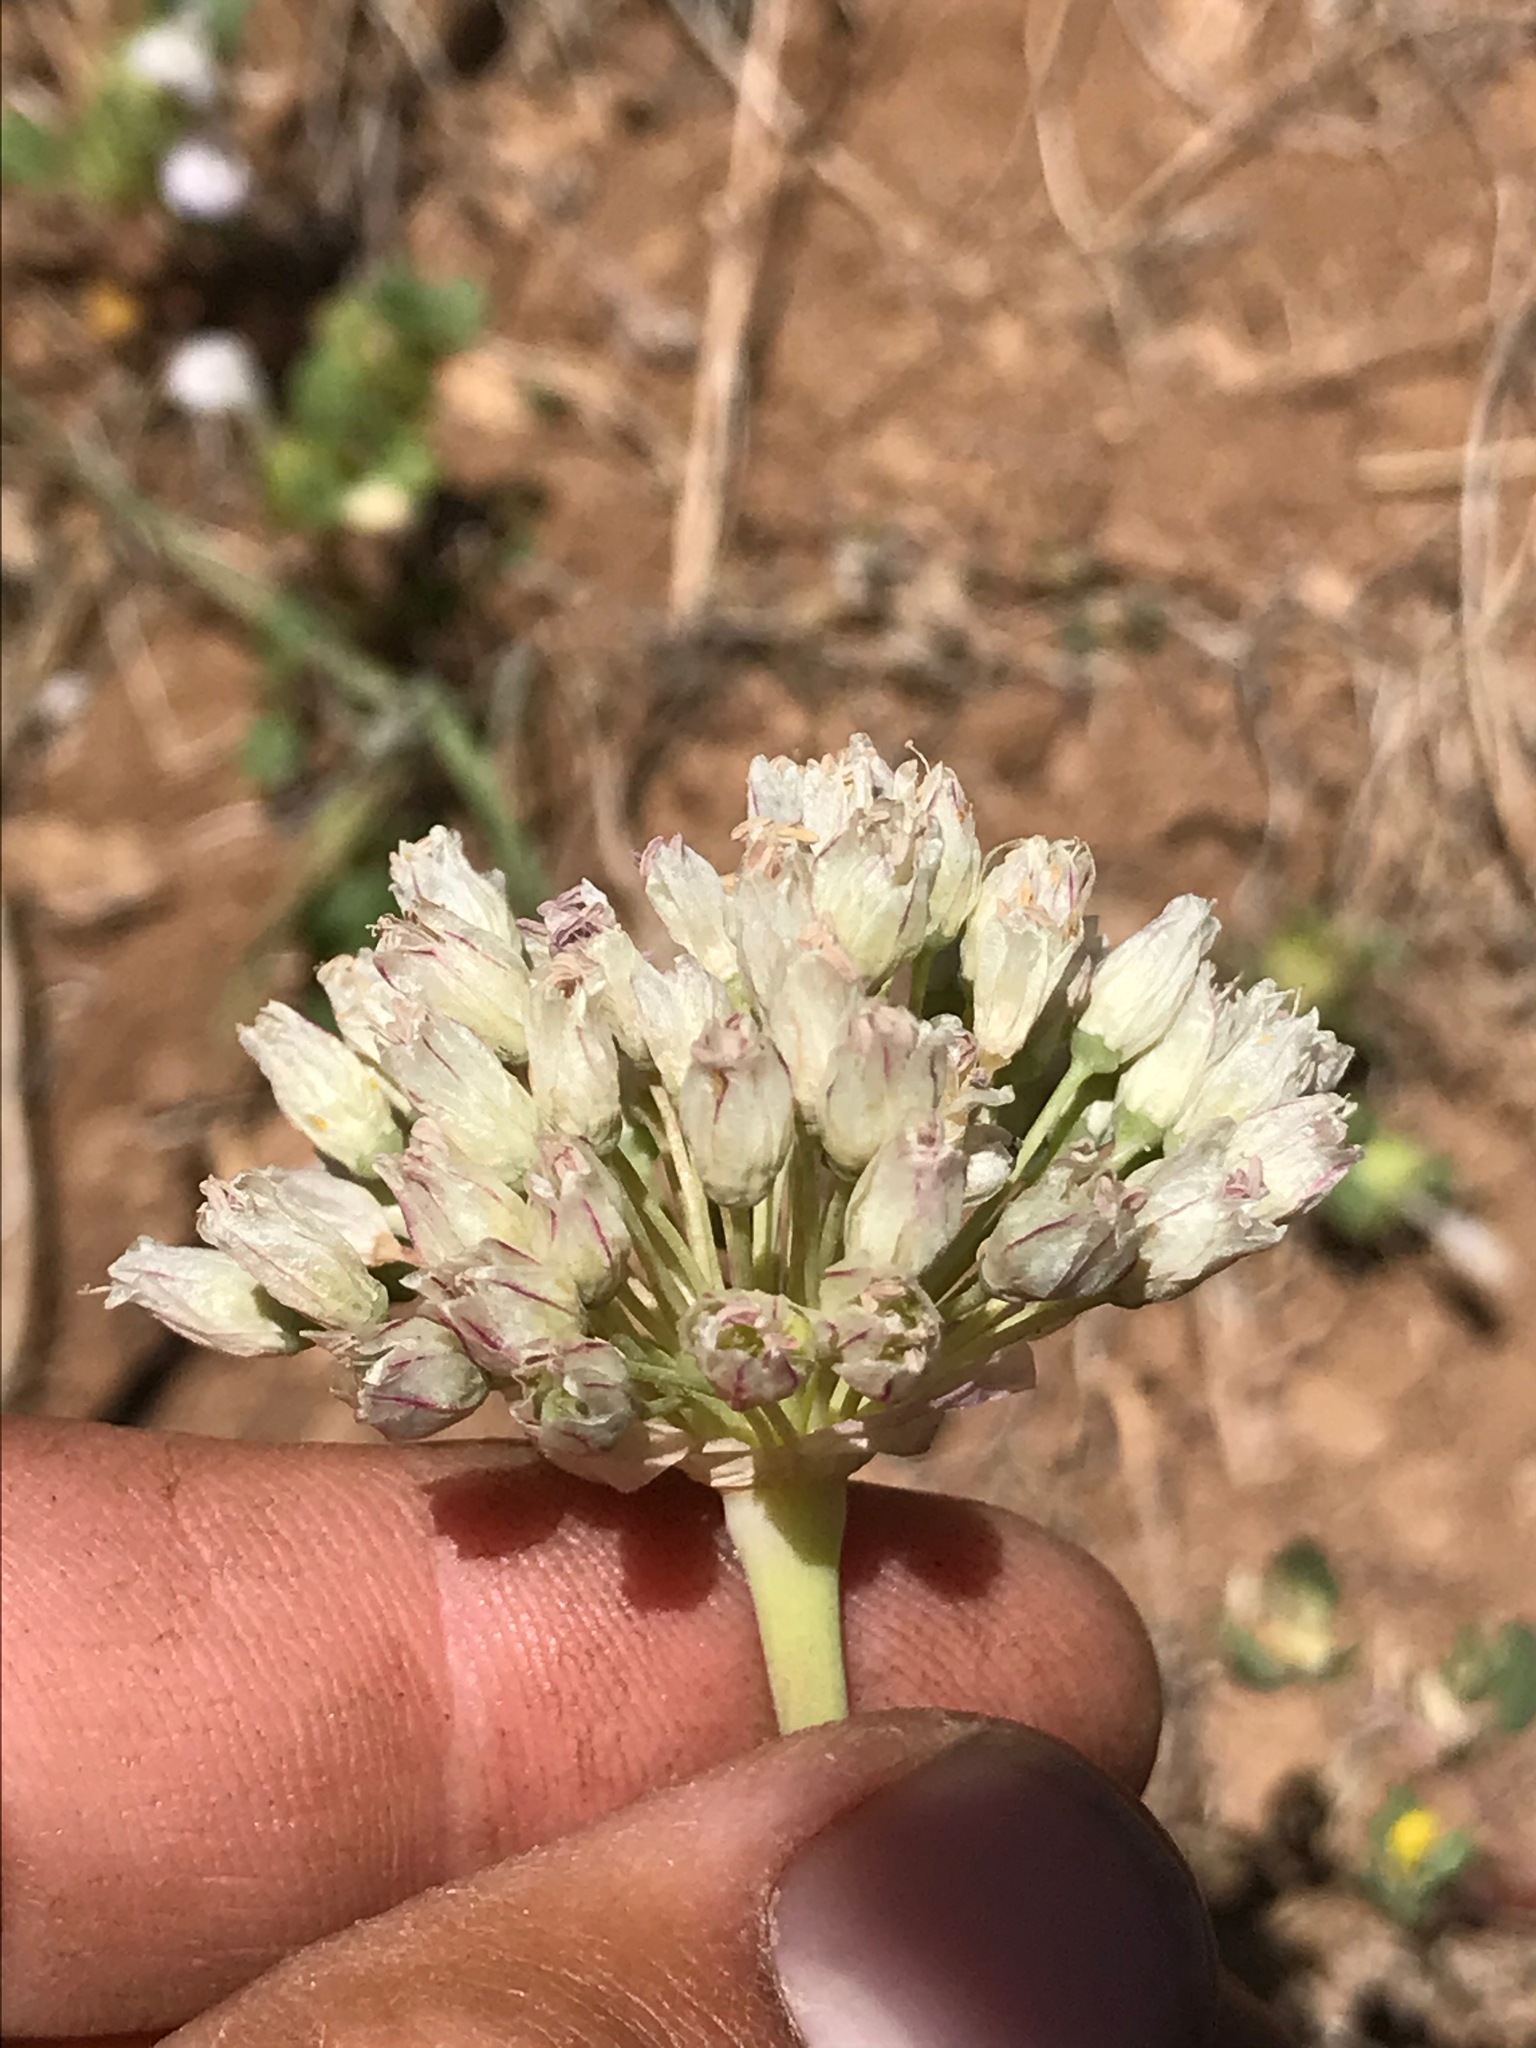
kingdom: Plantae
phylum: Tracheophyta
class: Liliopsida
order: Asparagales
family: Amaryllidaceae
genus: Allium
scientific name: Allium howellii
